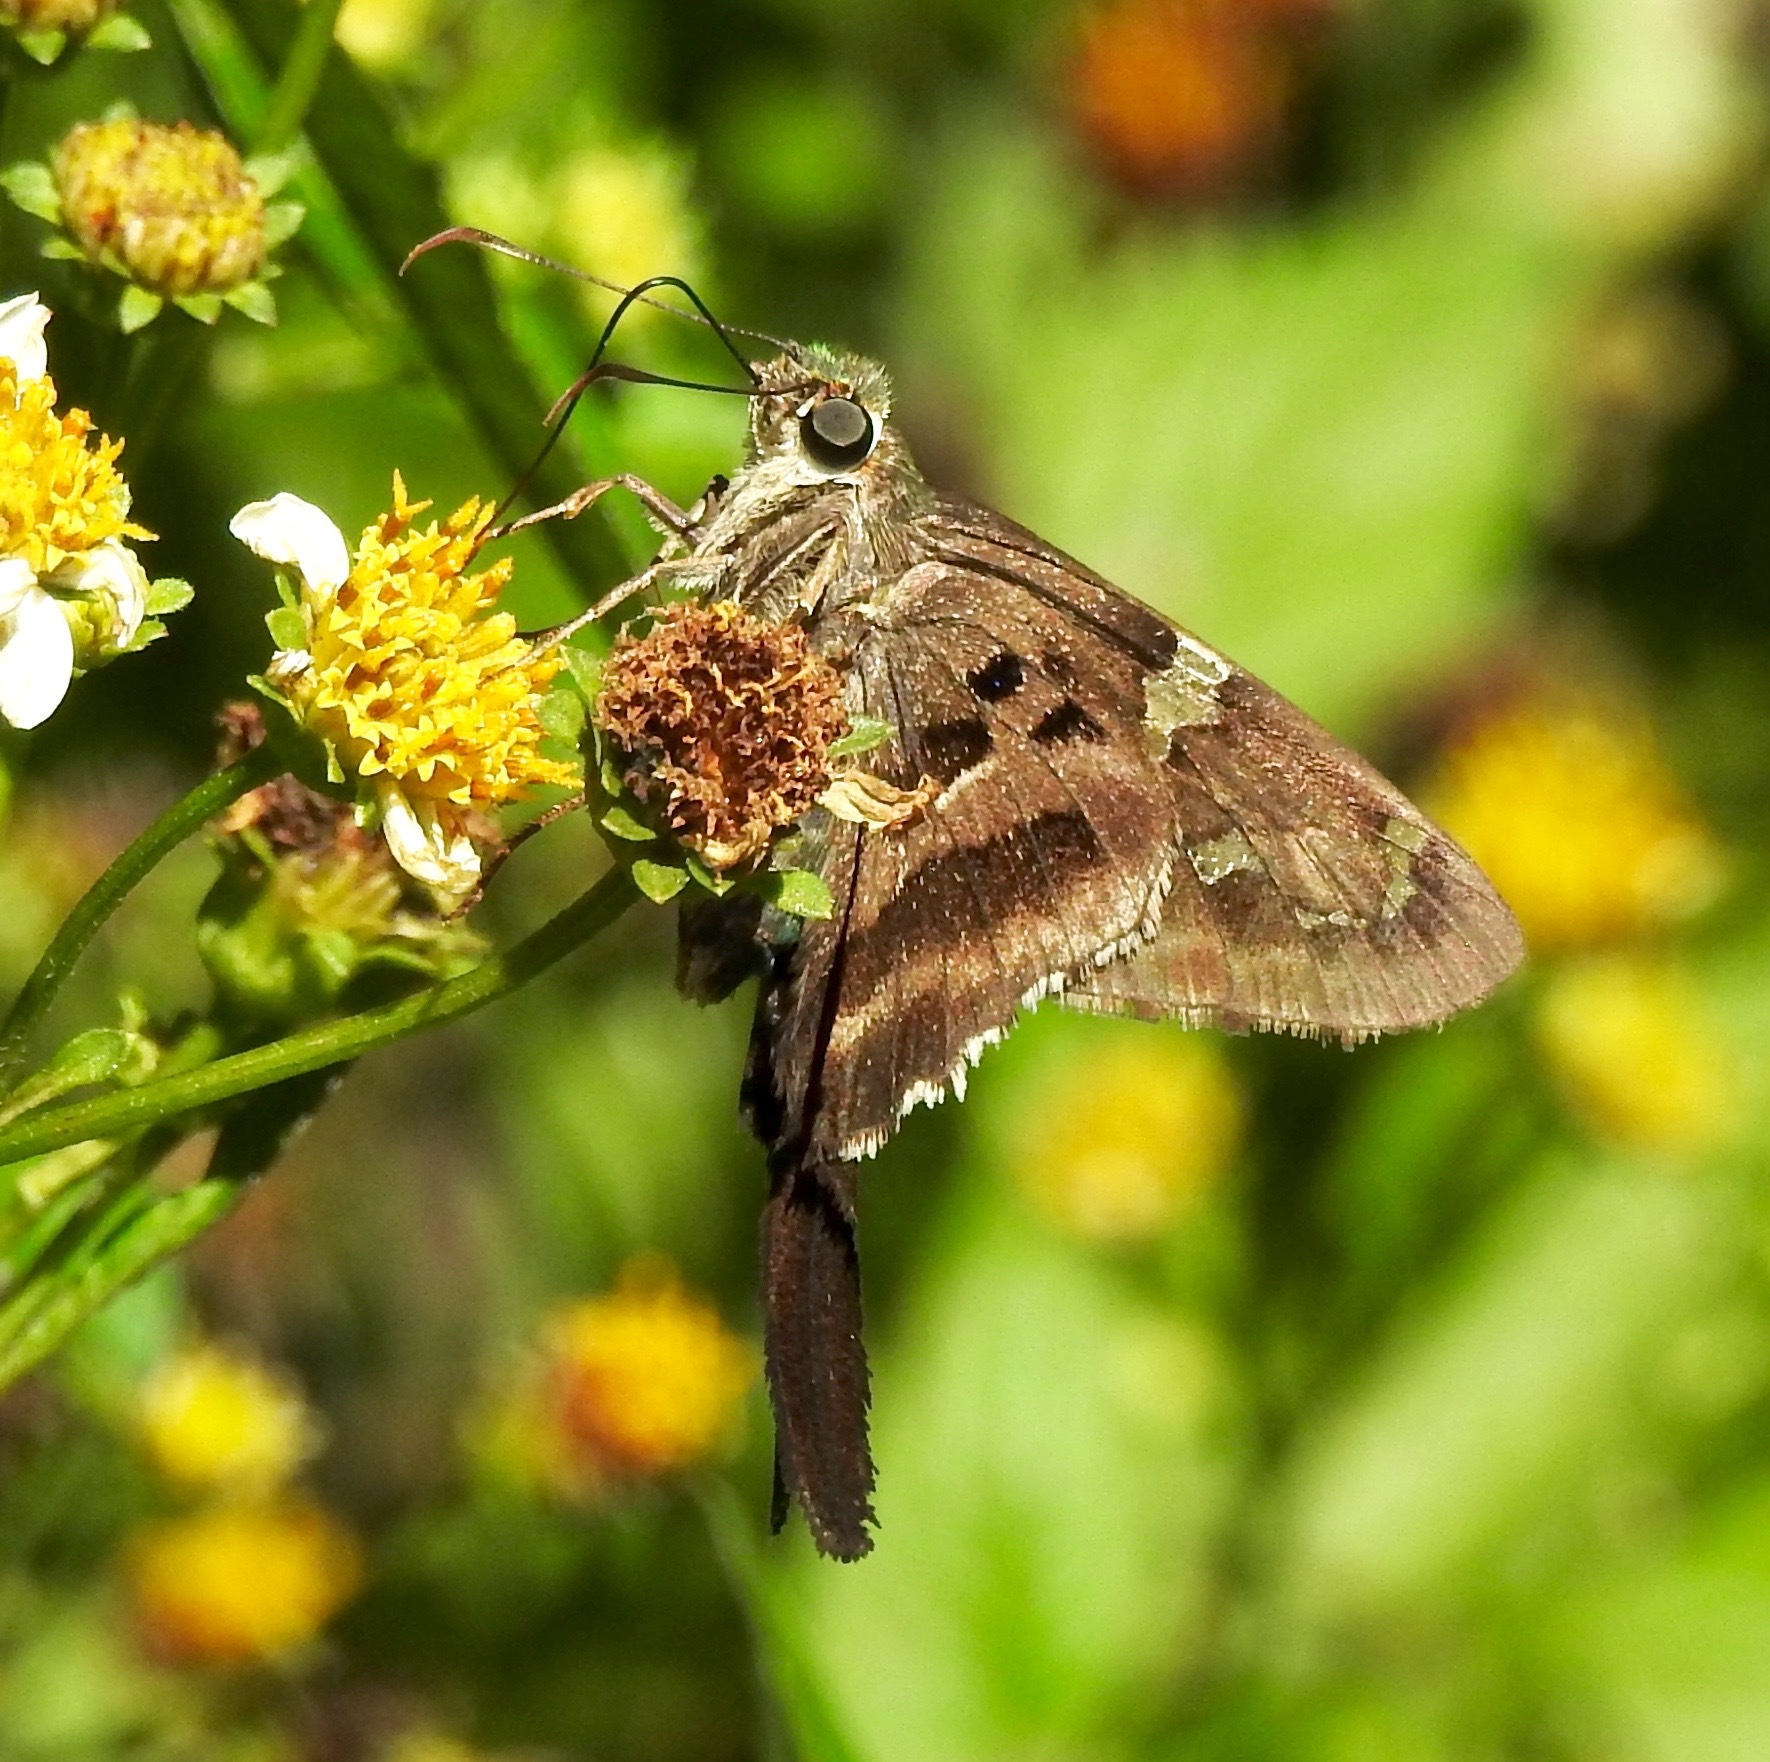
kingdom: Animalia
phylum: Arthropoda
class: Insecta
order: Lepidoptera
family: Hesperiidae
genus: Urbanus
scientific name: Urbanus proteus
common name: Long-tailed skipper
